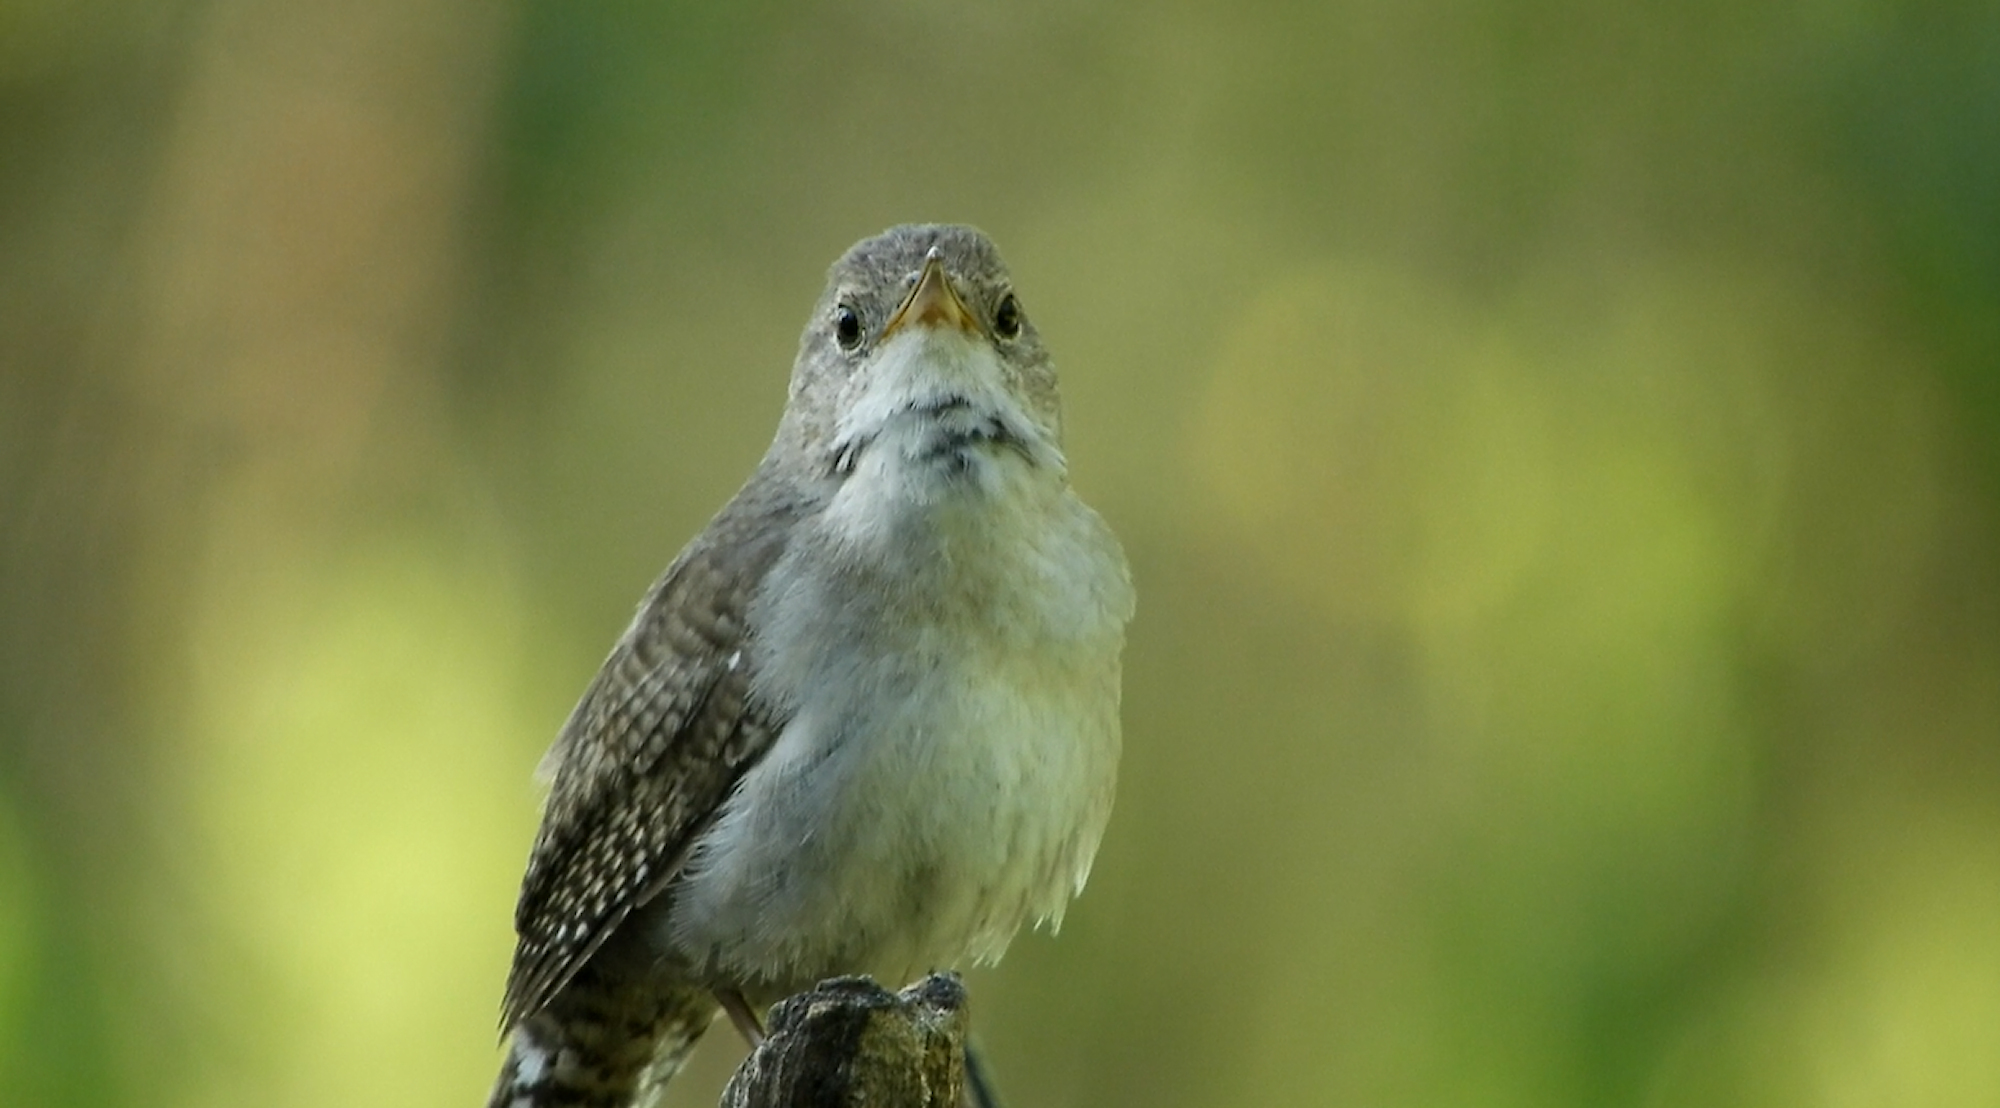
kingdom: Animalia
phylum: Chordata
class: Aves
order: Passeriformes
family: Troglodytidae
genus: Troglodytes
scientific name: Troglodytes aedon
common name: House wren
